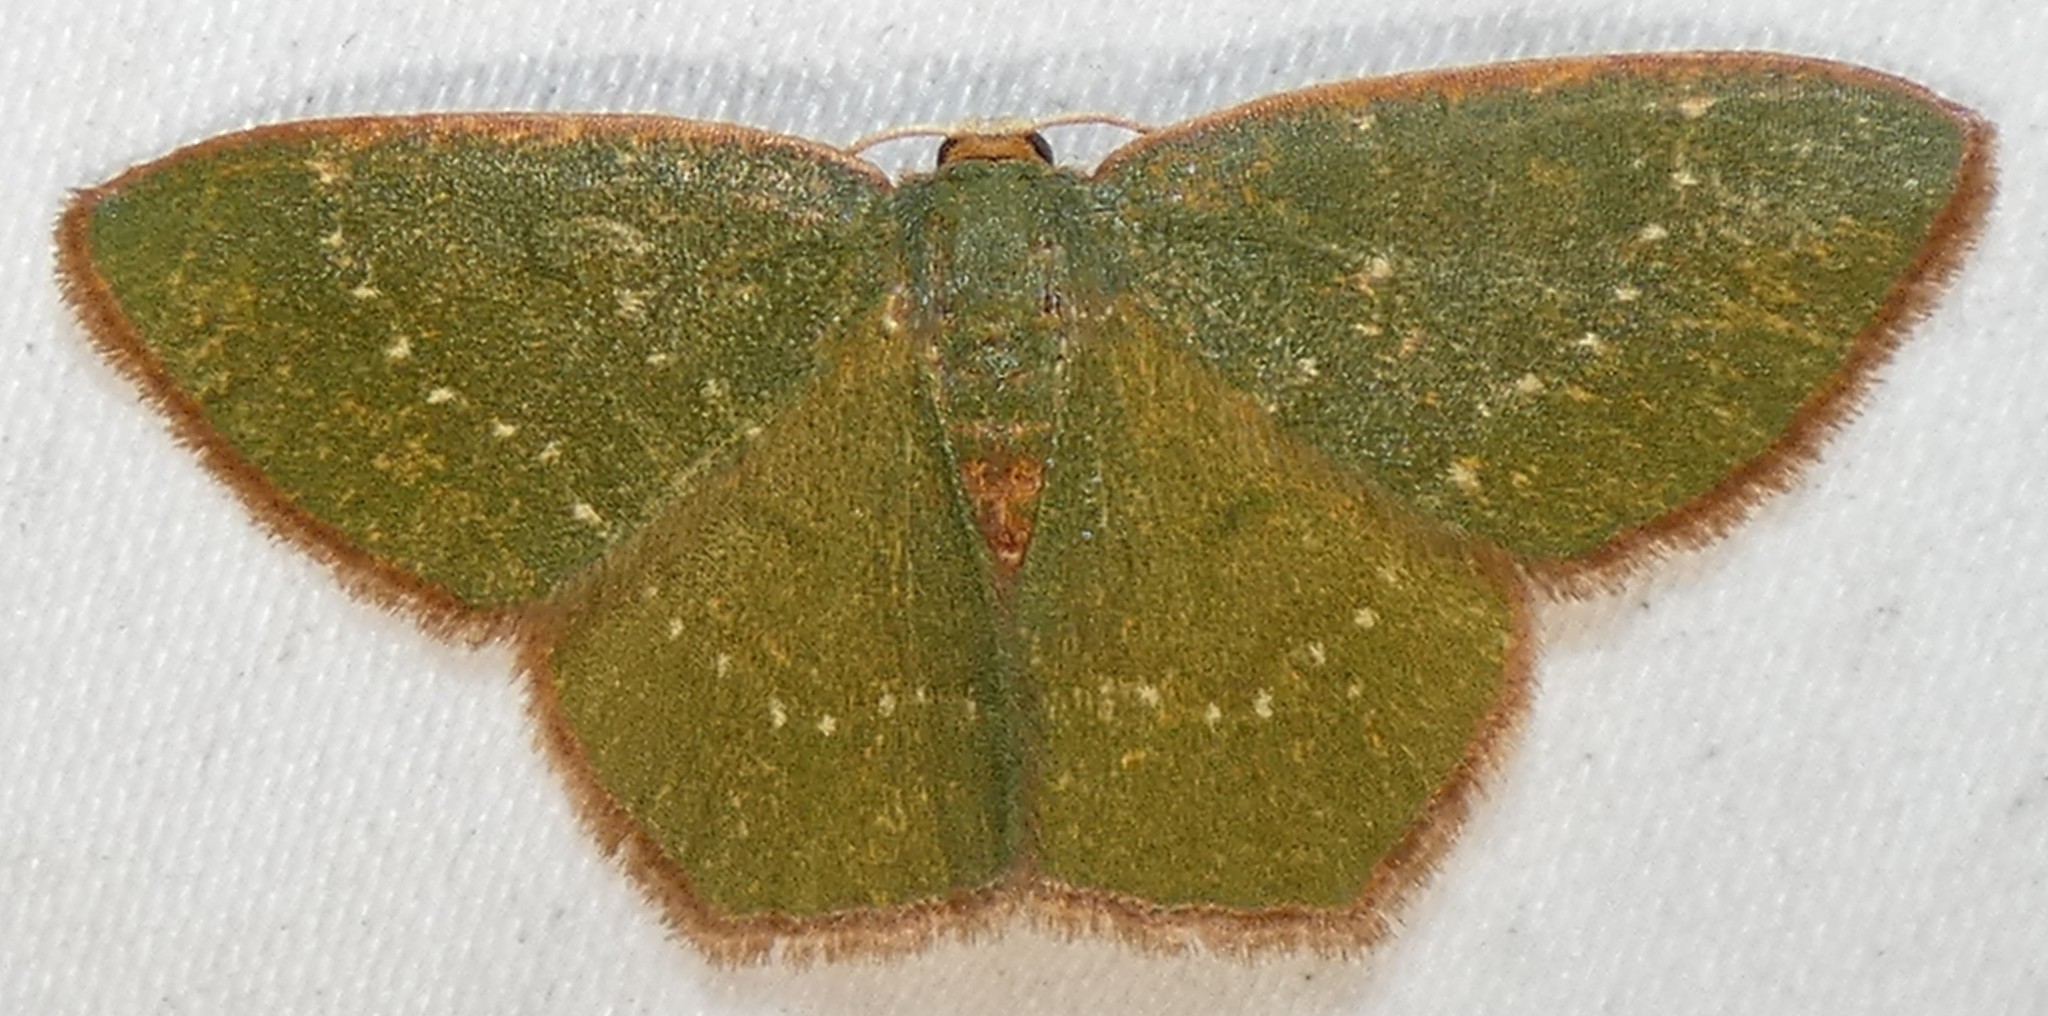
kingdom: Animalia
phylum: Arthropoda
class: Insecta
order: Lepidoptera
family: Geometridae
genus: Thalera
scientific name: Thalera pistasciaria
